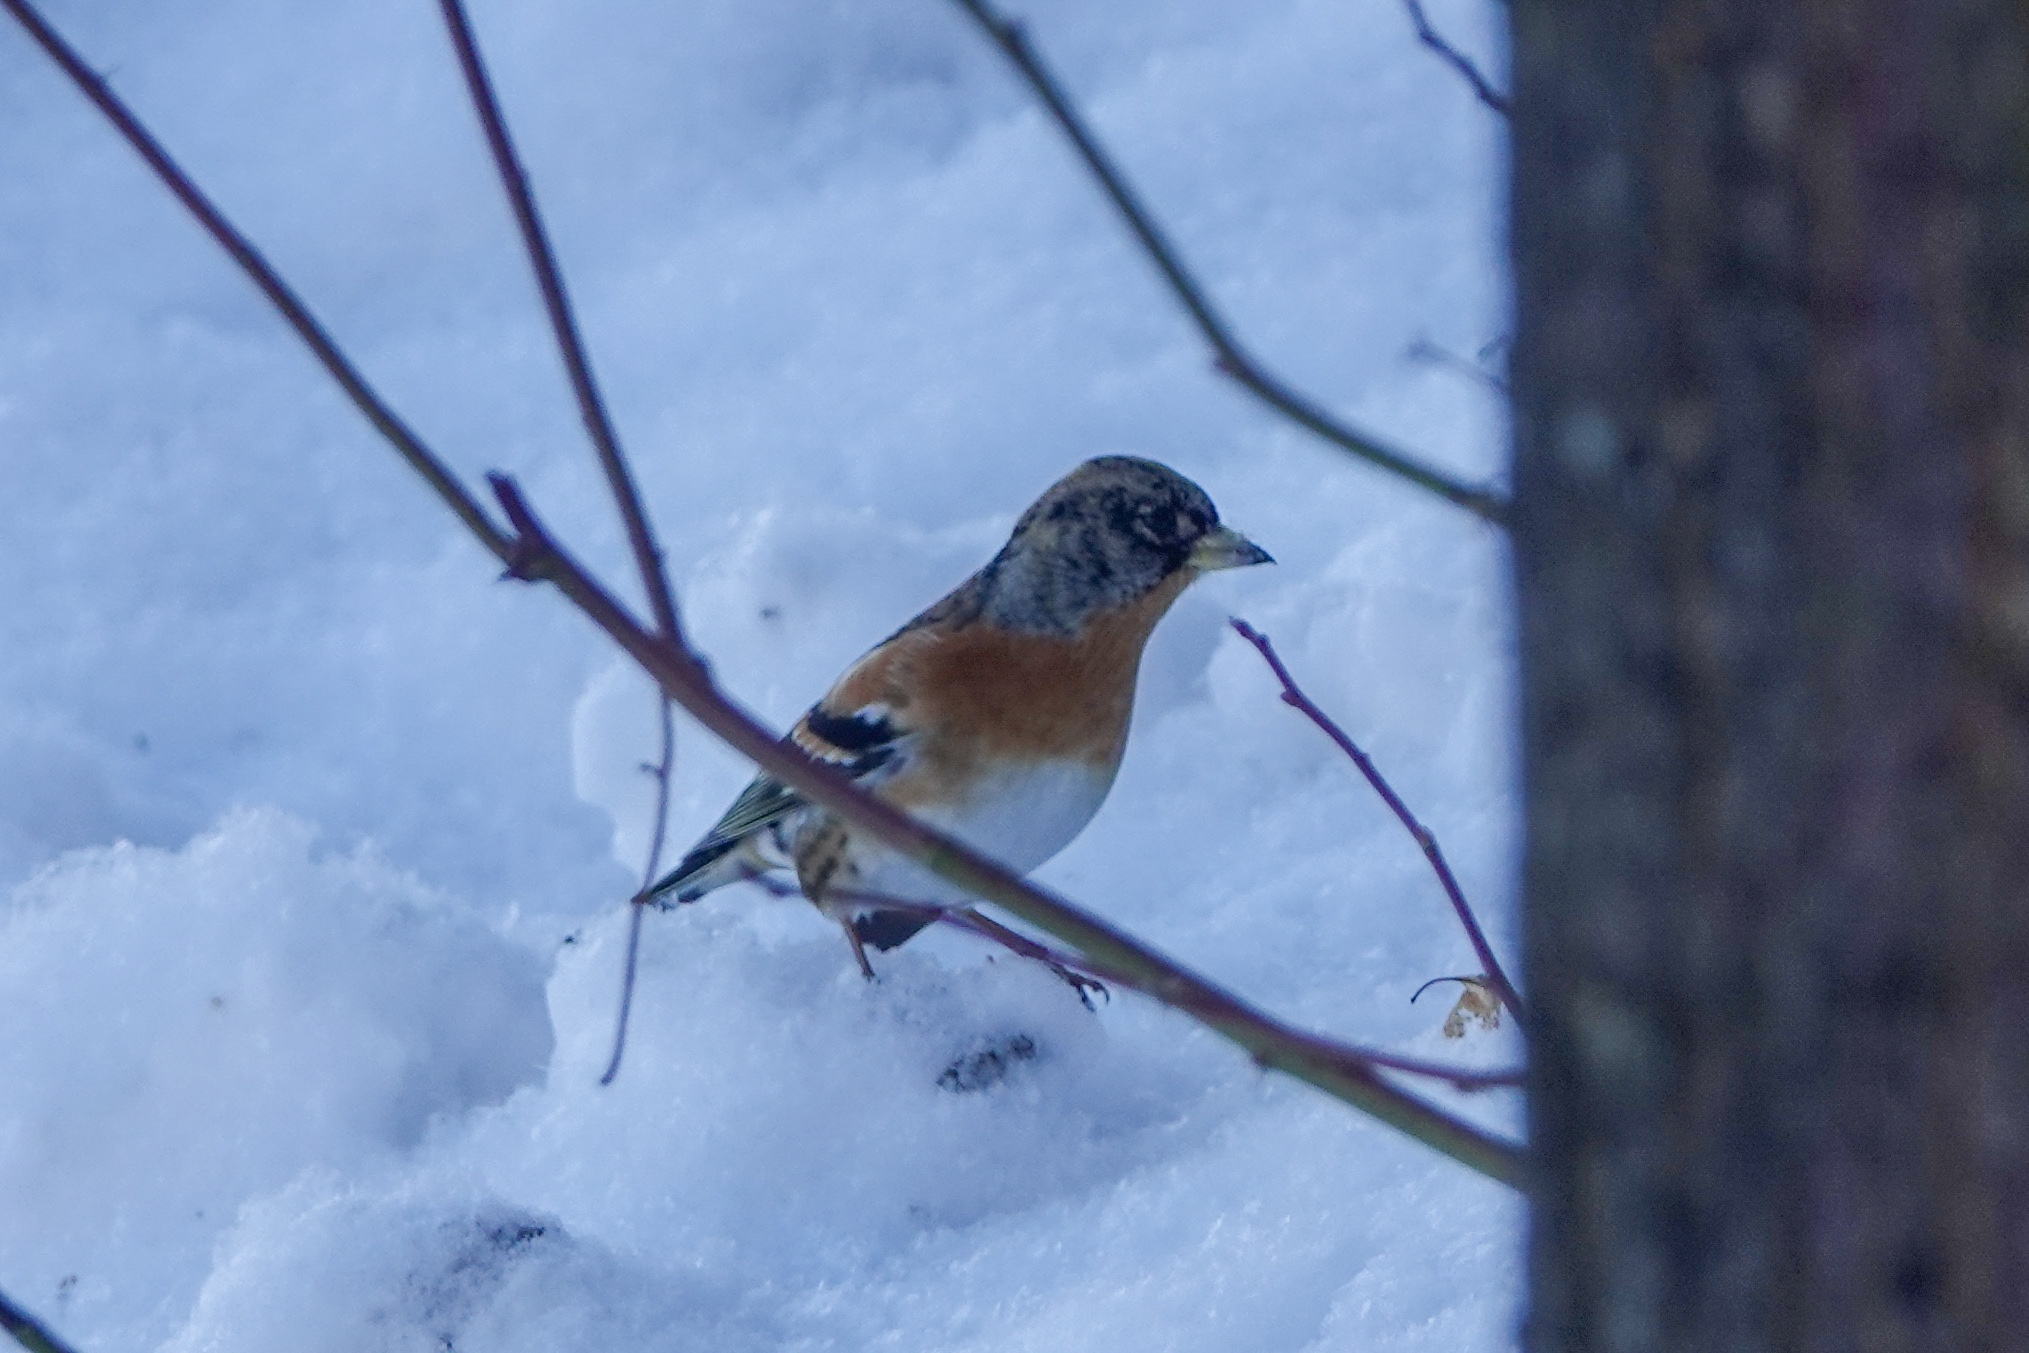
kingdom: Animalia
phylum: Chordata
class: Aves
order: Passeriformes
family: Fringillidae
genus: Fringilla
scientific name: Fringilla montifringilla
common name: Brambling
